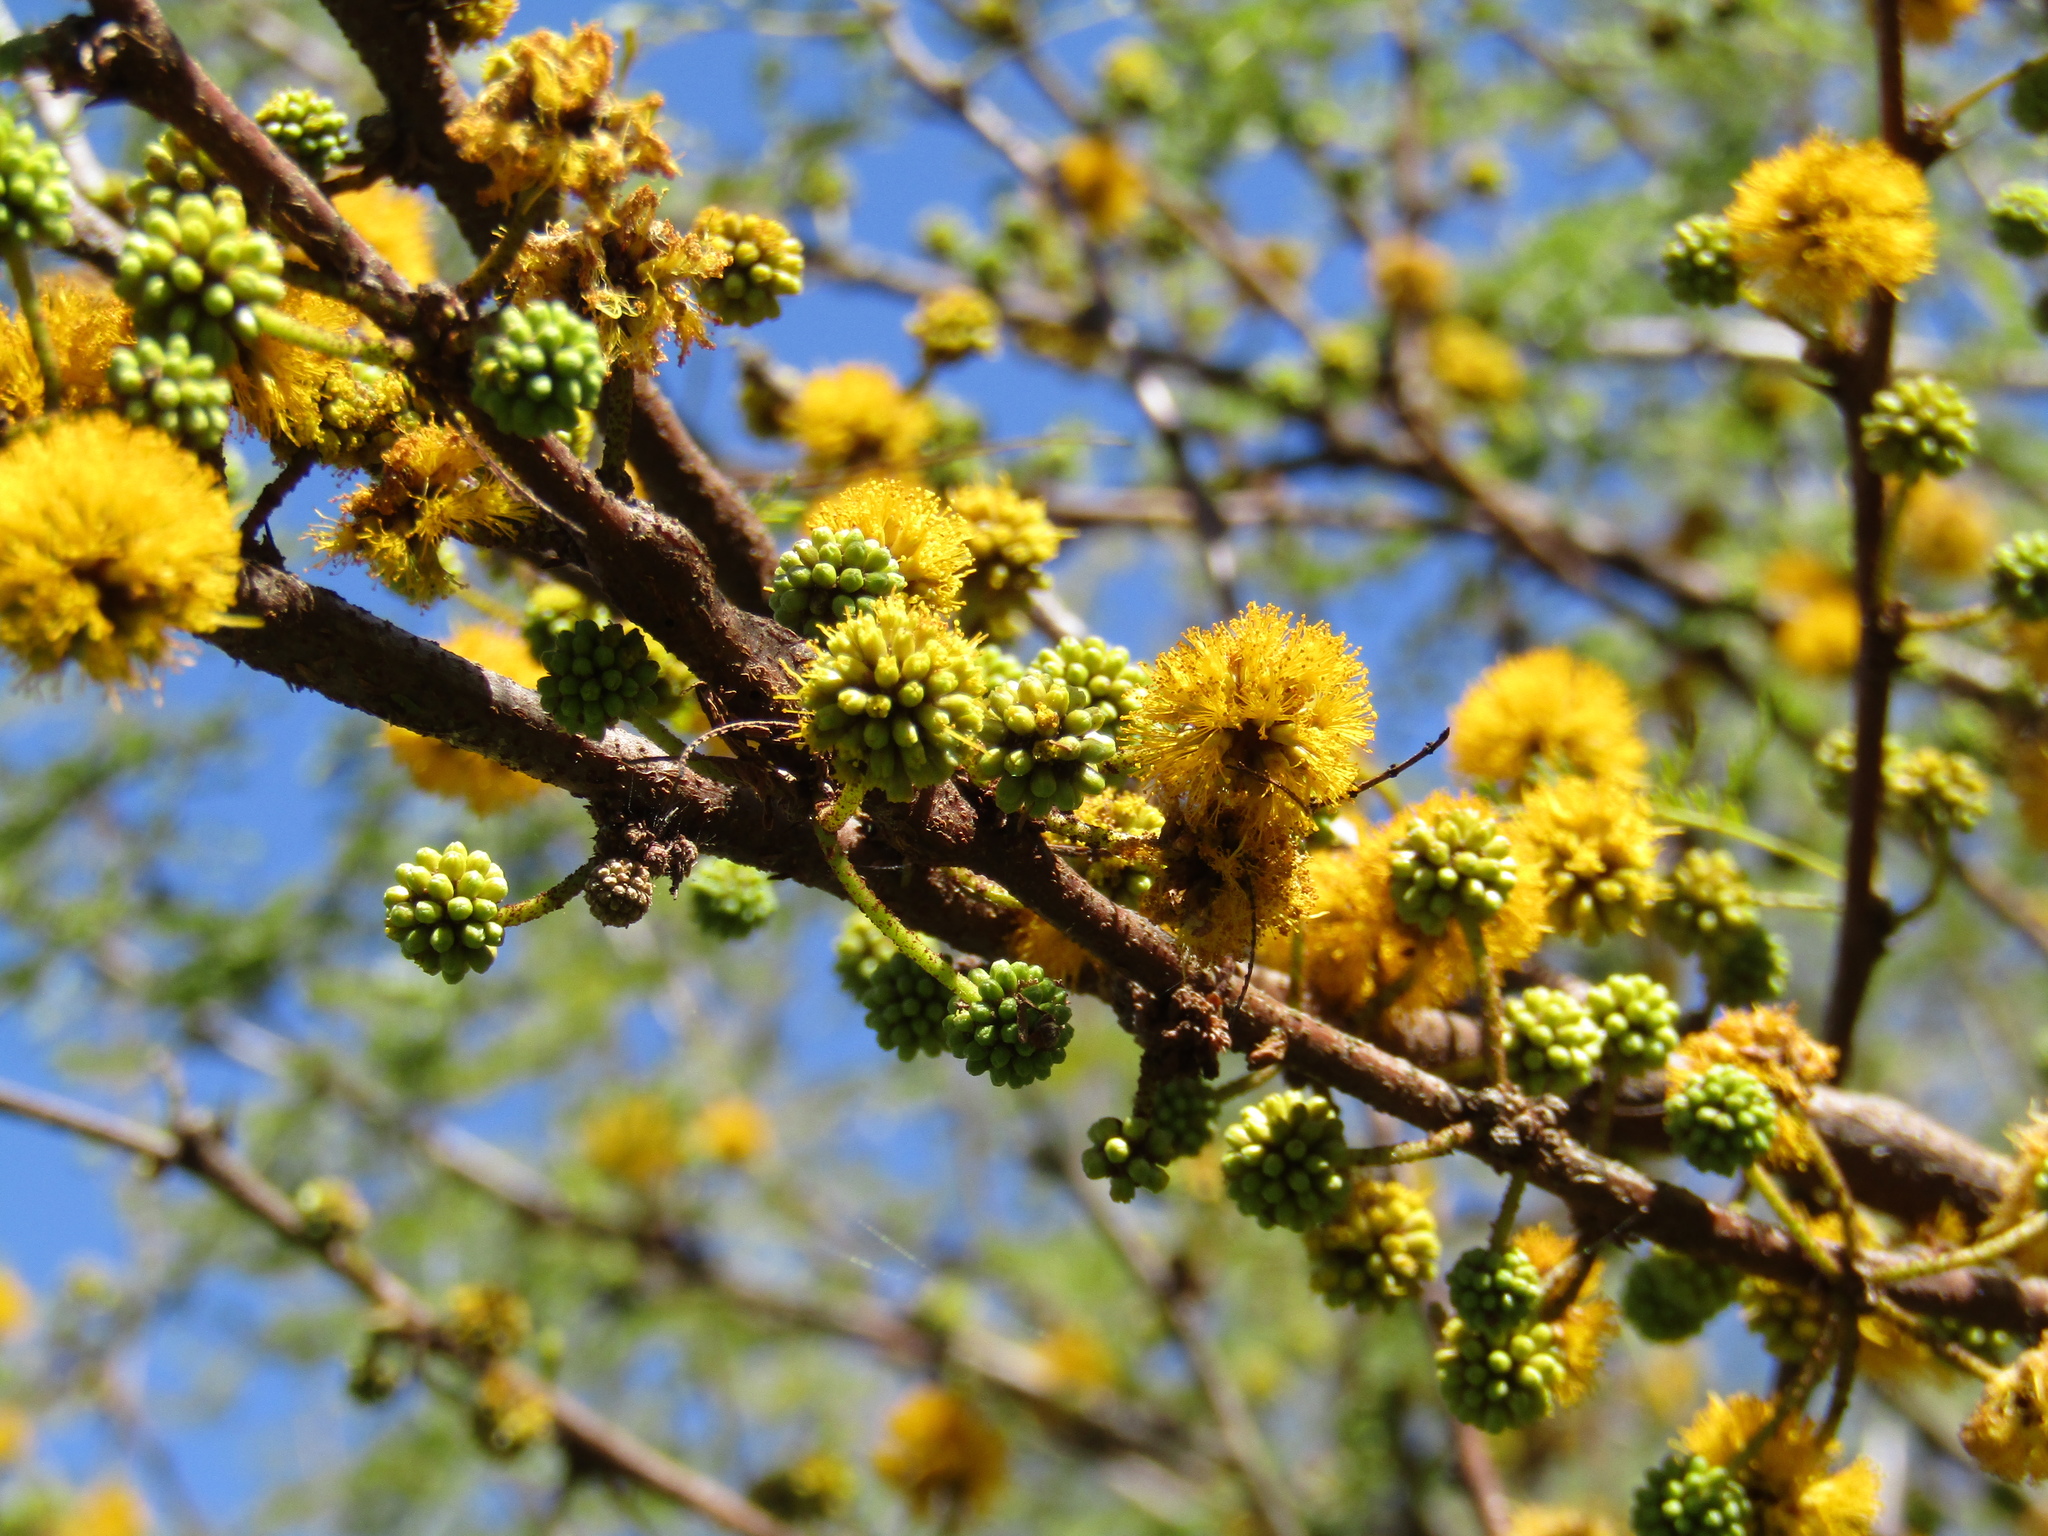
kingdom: Plantae
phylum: Tracheophyta
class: Magnoliopsida
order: Fabales
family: Fabaceae
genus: Vachellia
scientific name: Vachellia caven
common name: Roman cassie
